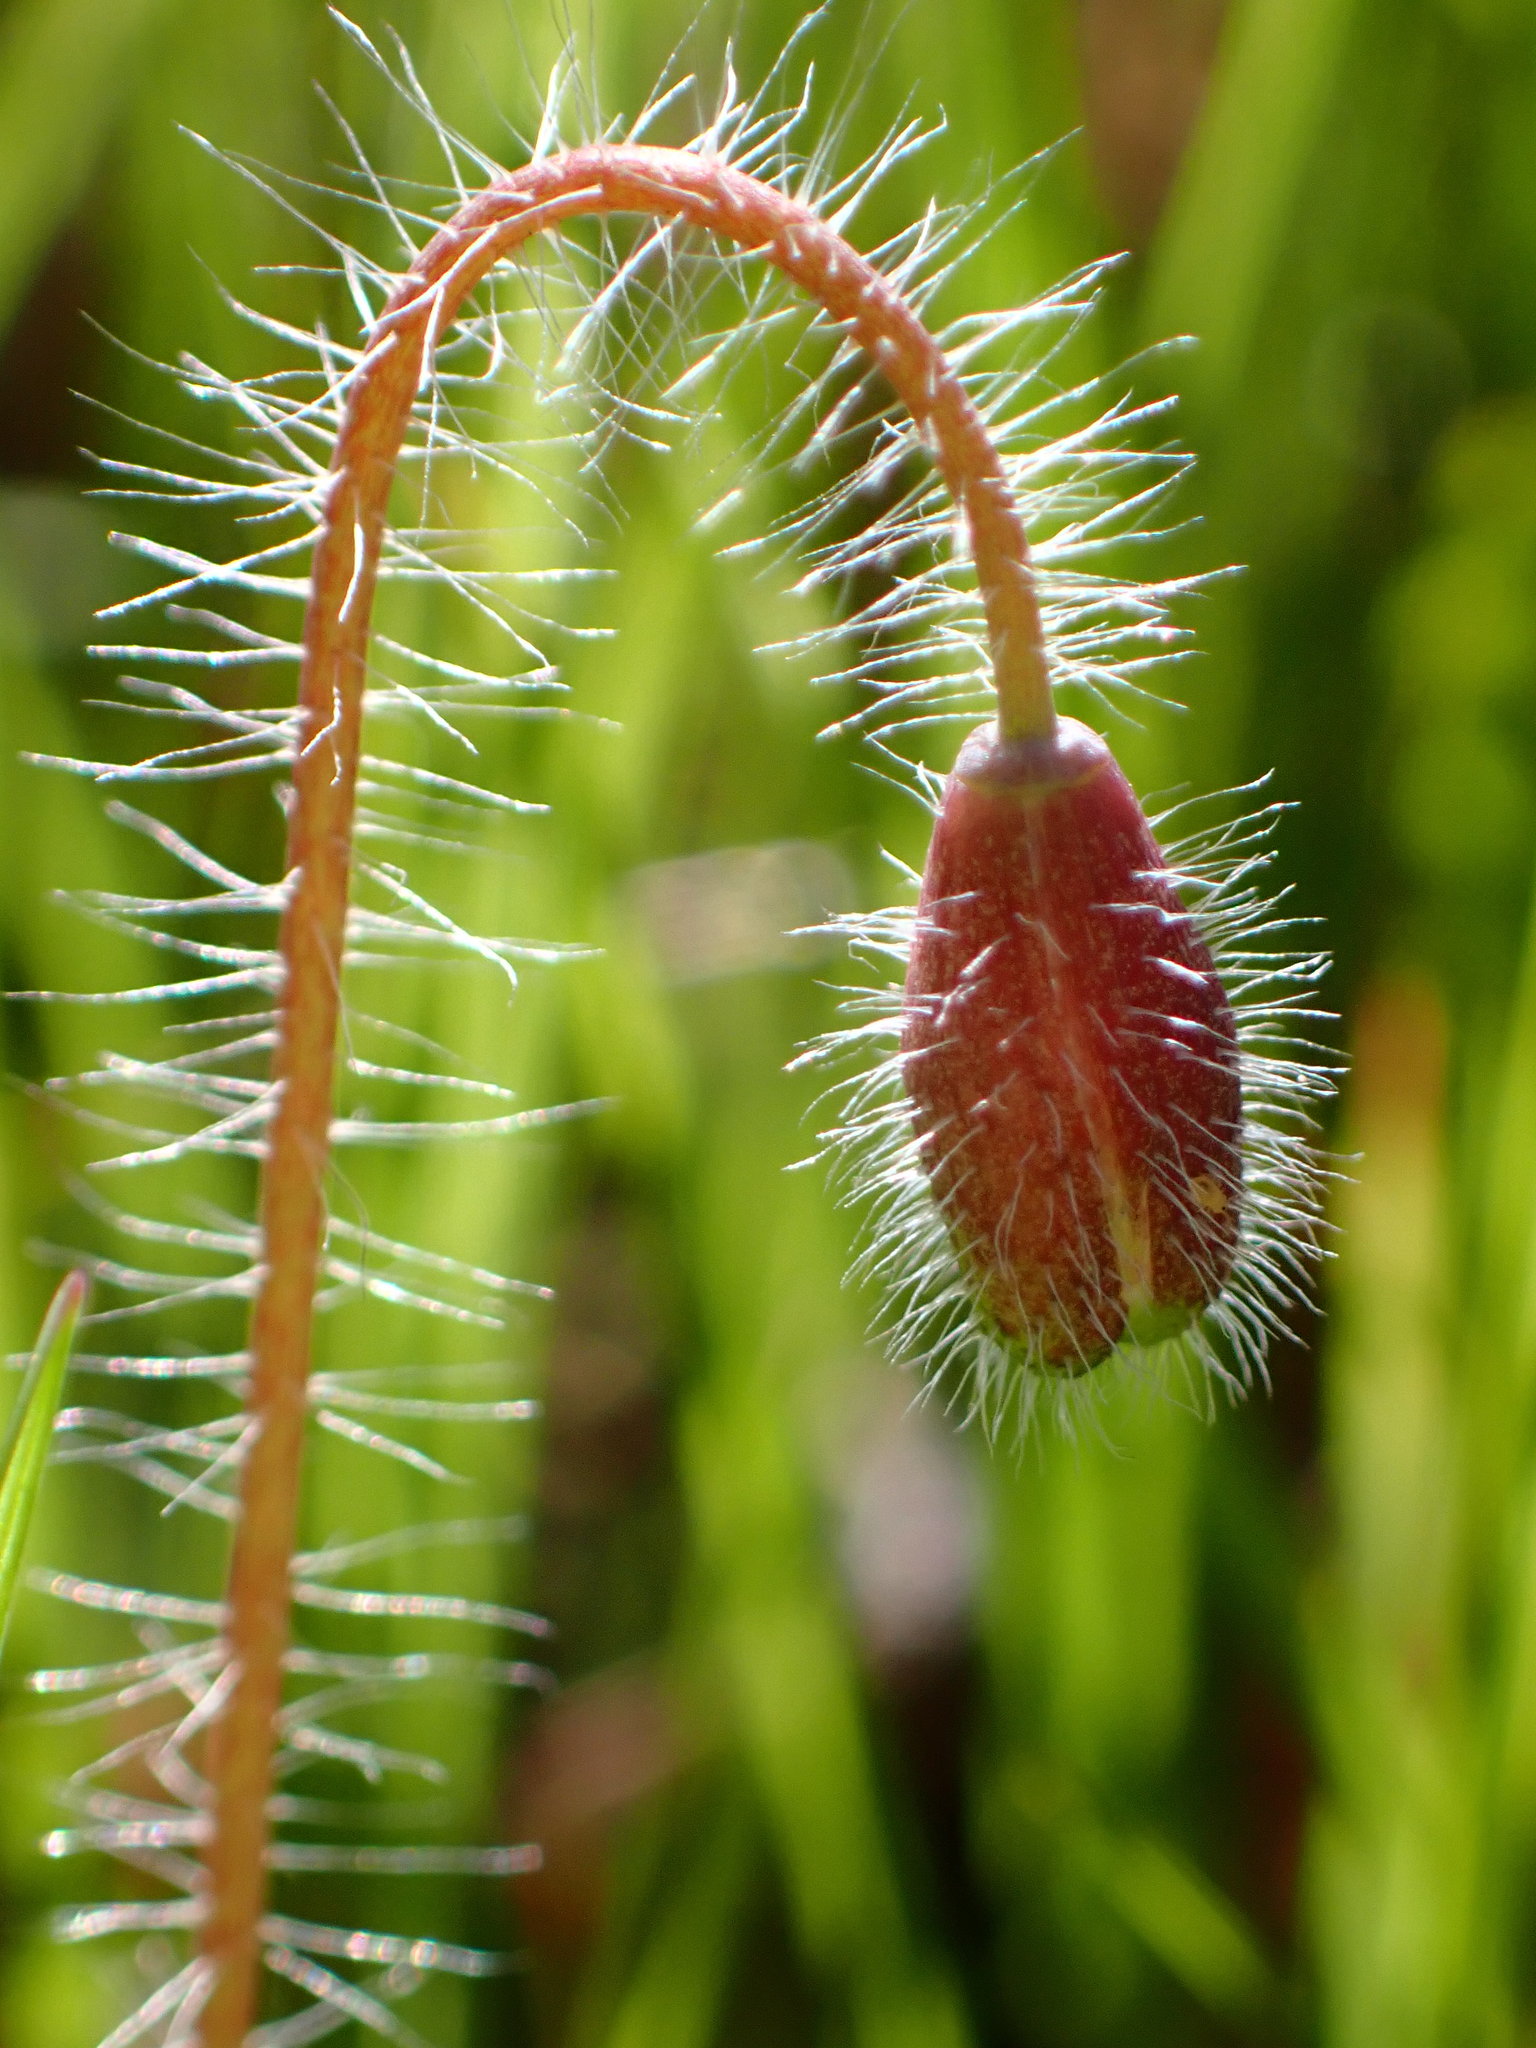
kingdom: Plantae
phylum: Tracheophyta
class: Magnoliopsida
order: Ranunculales
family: Papaveraceae
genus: Platystemon
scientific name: Platystemon californicus
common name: Cream-cups
